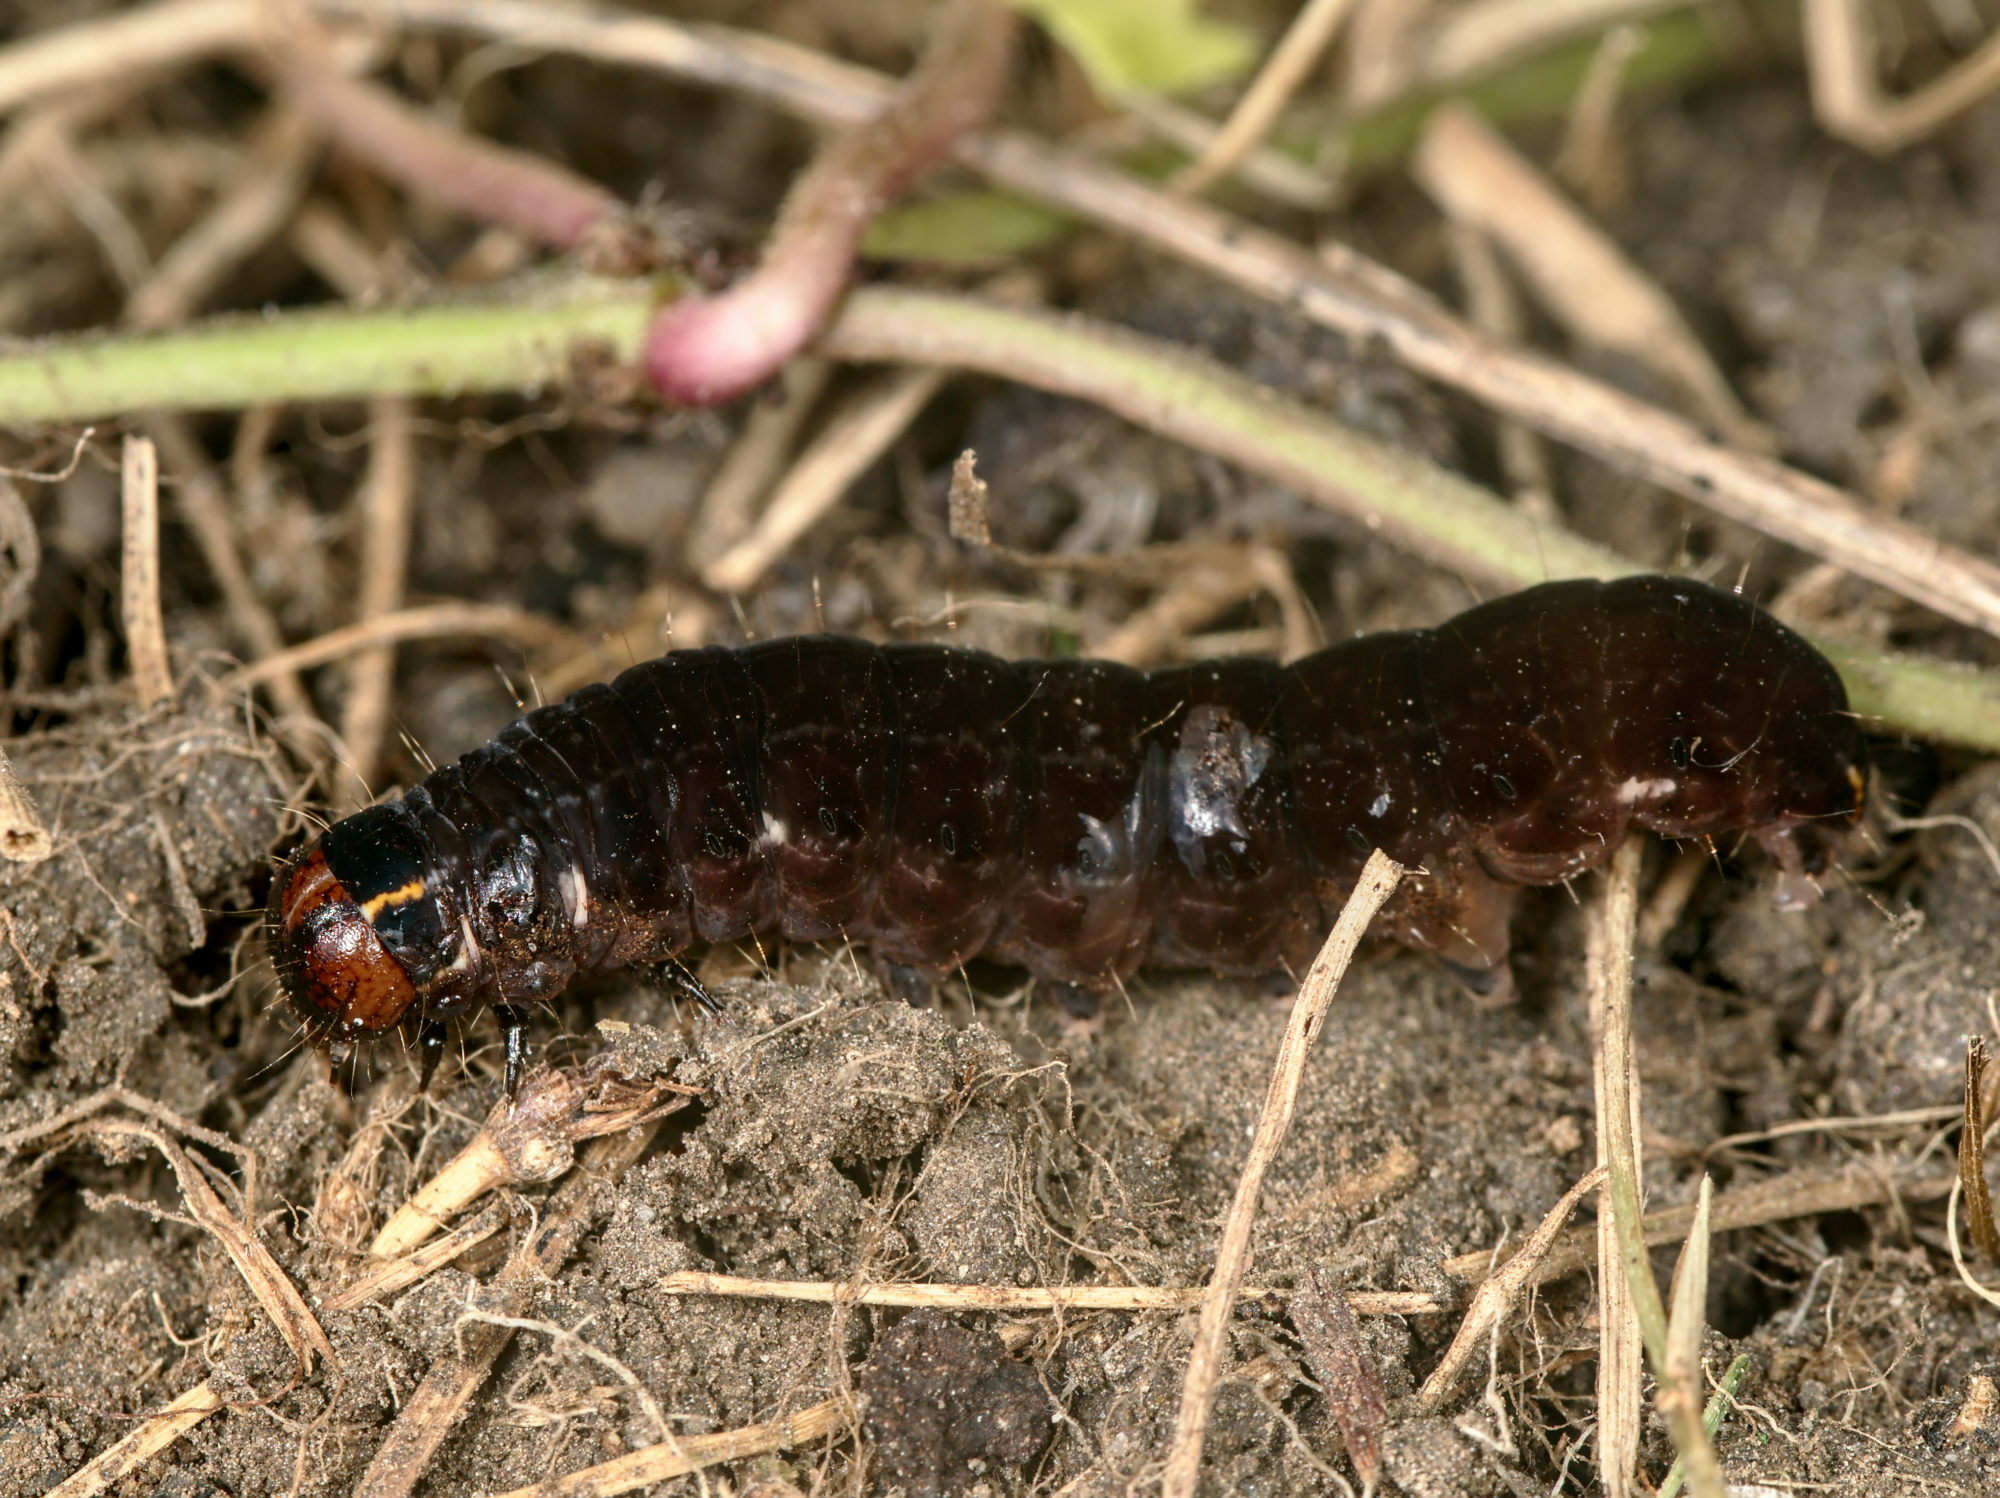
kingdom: Animalia
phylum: Arthropoda
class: Insecta
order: Lepidoptera
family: Noctuidae
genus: Eupsilia
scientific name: Eupsilia transversa
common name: Satellite
